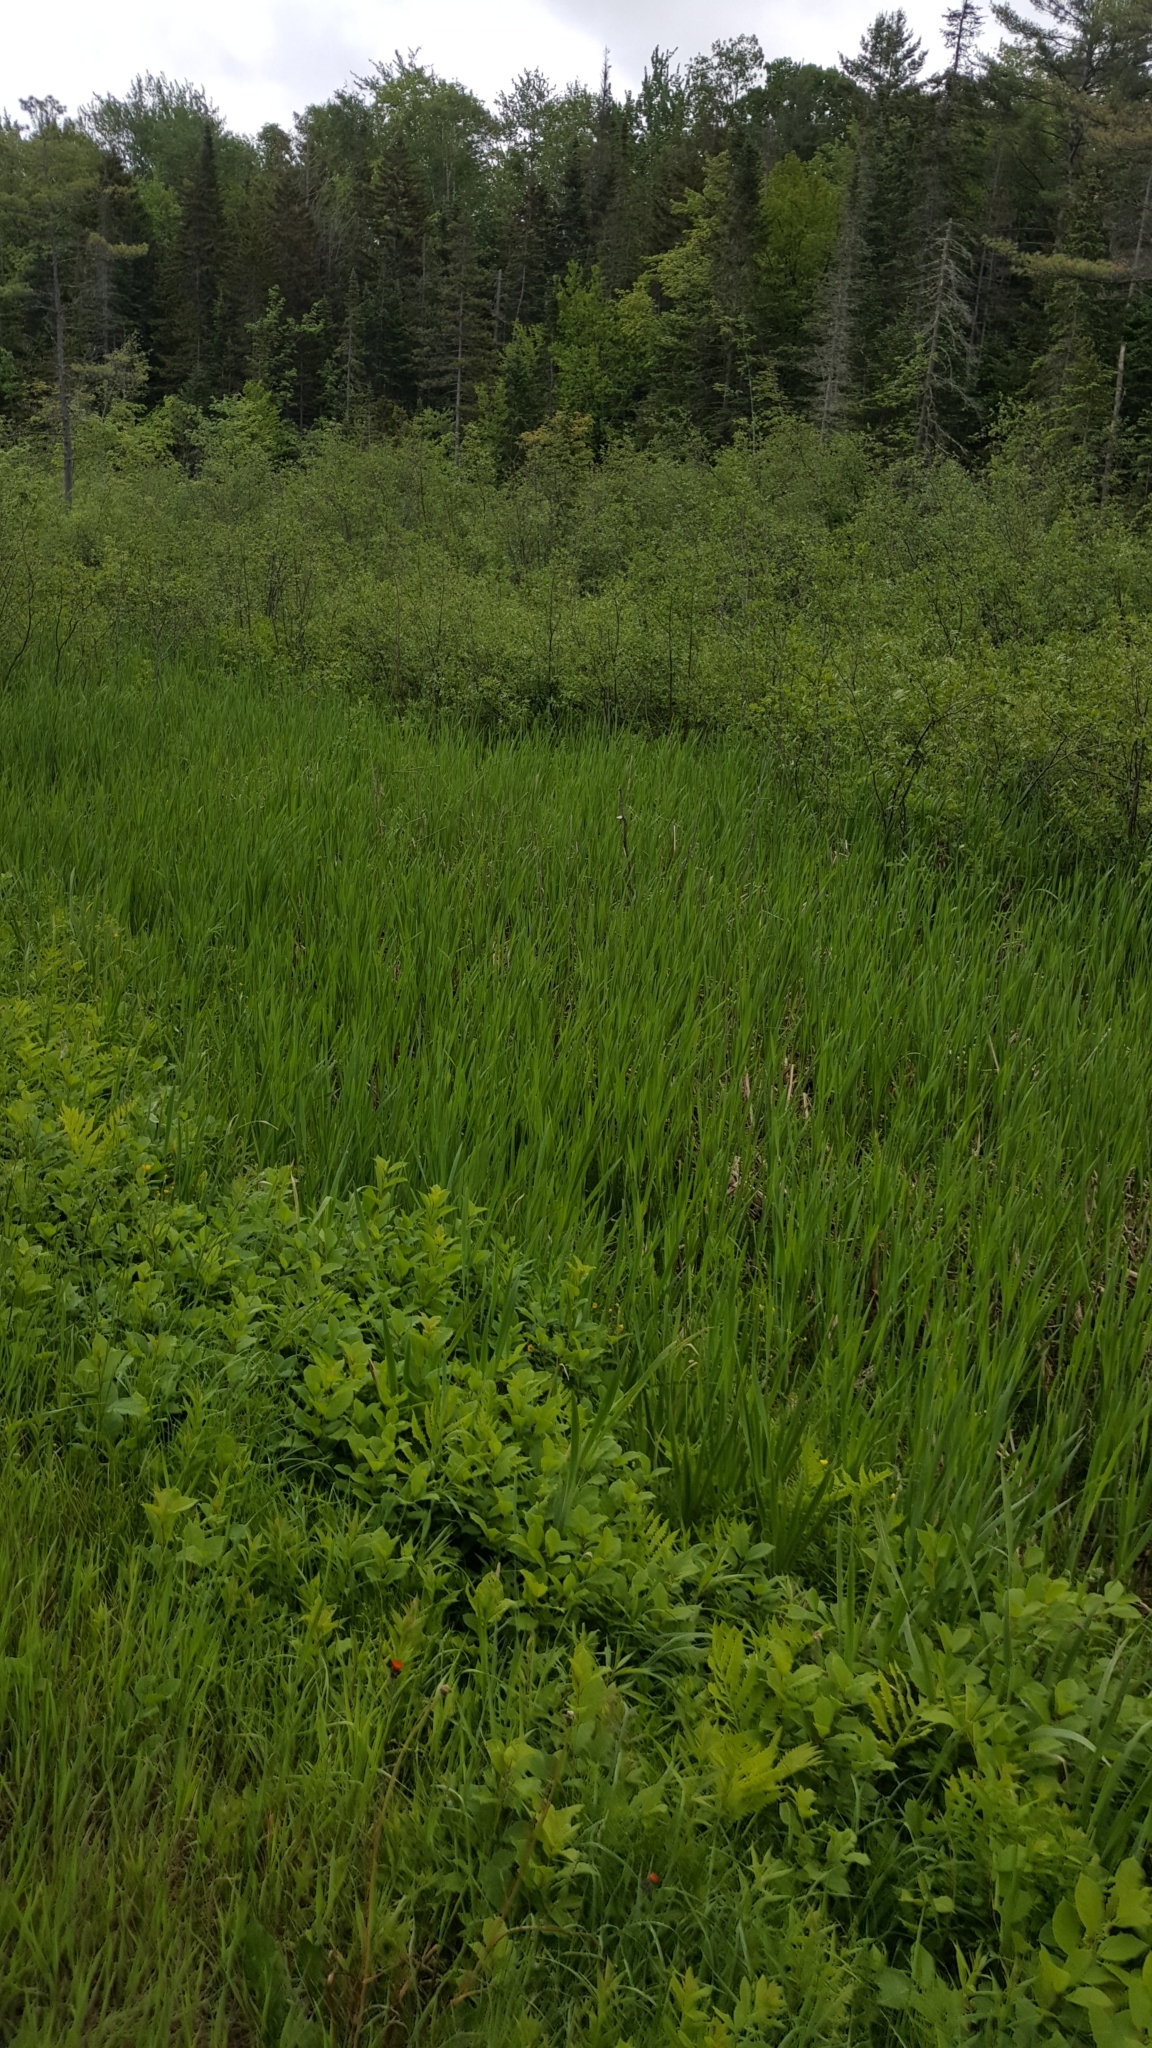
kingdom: Plantae
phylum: Tracheophyta
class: Liliopsida
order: Poales
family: Typhaceae
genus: Typha
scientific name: Typha latifolia
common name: Broadleaf cattail
